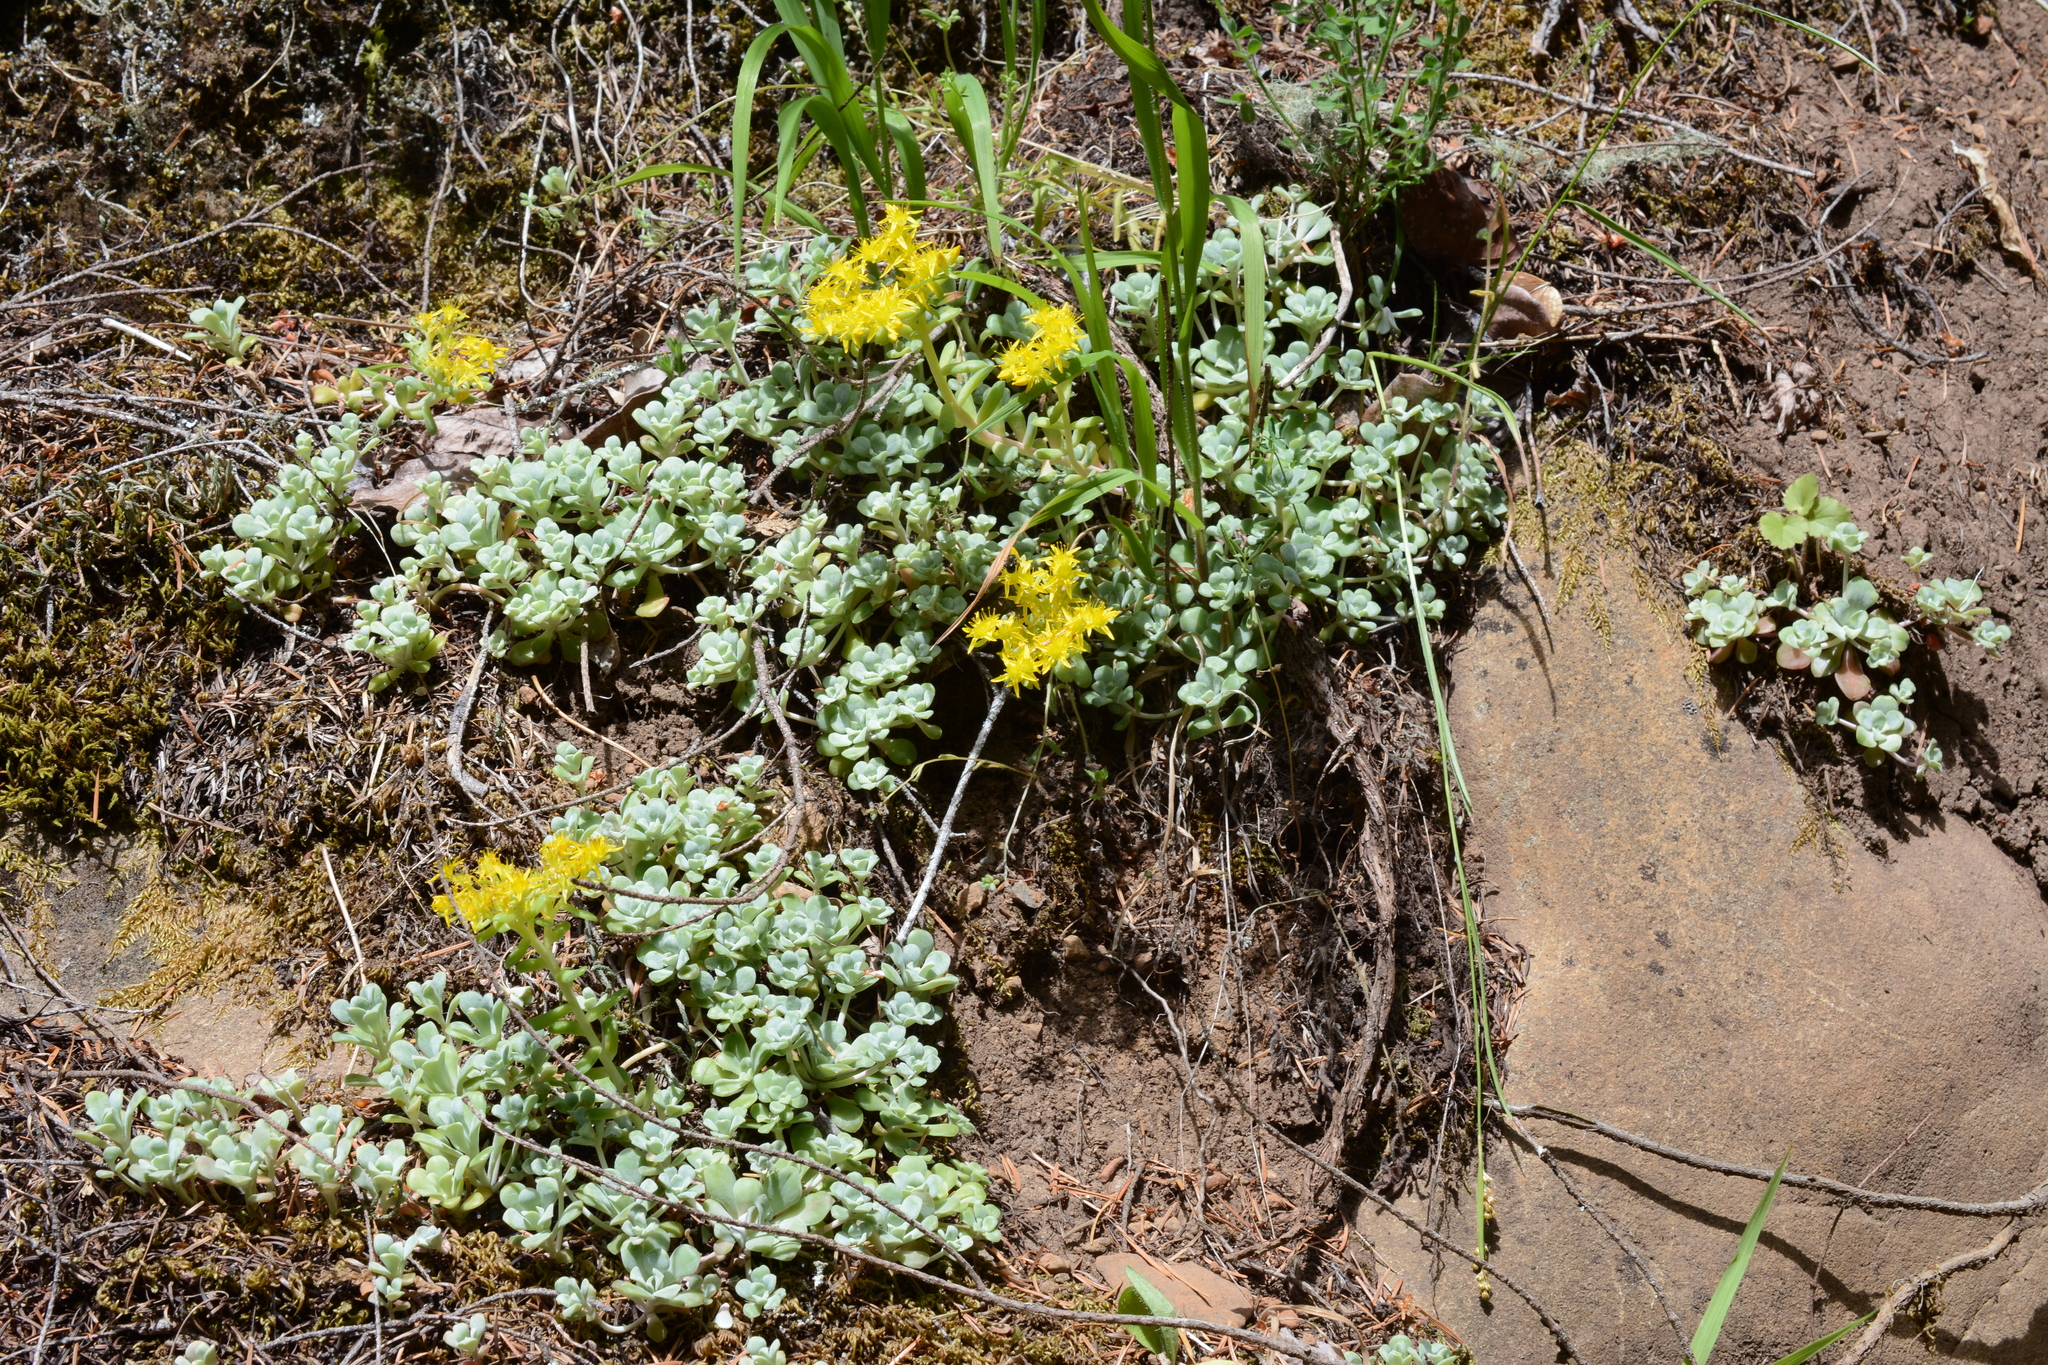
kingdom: Plantae
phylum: Tracheophyta
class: Magnoliopsida
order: Saxifragales
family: Crassulaceae
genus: Sedum
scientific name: Sedum spathulifolium
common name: Colorado stonecrop
